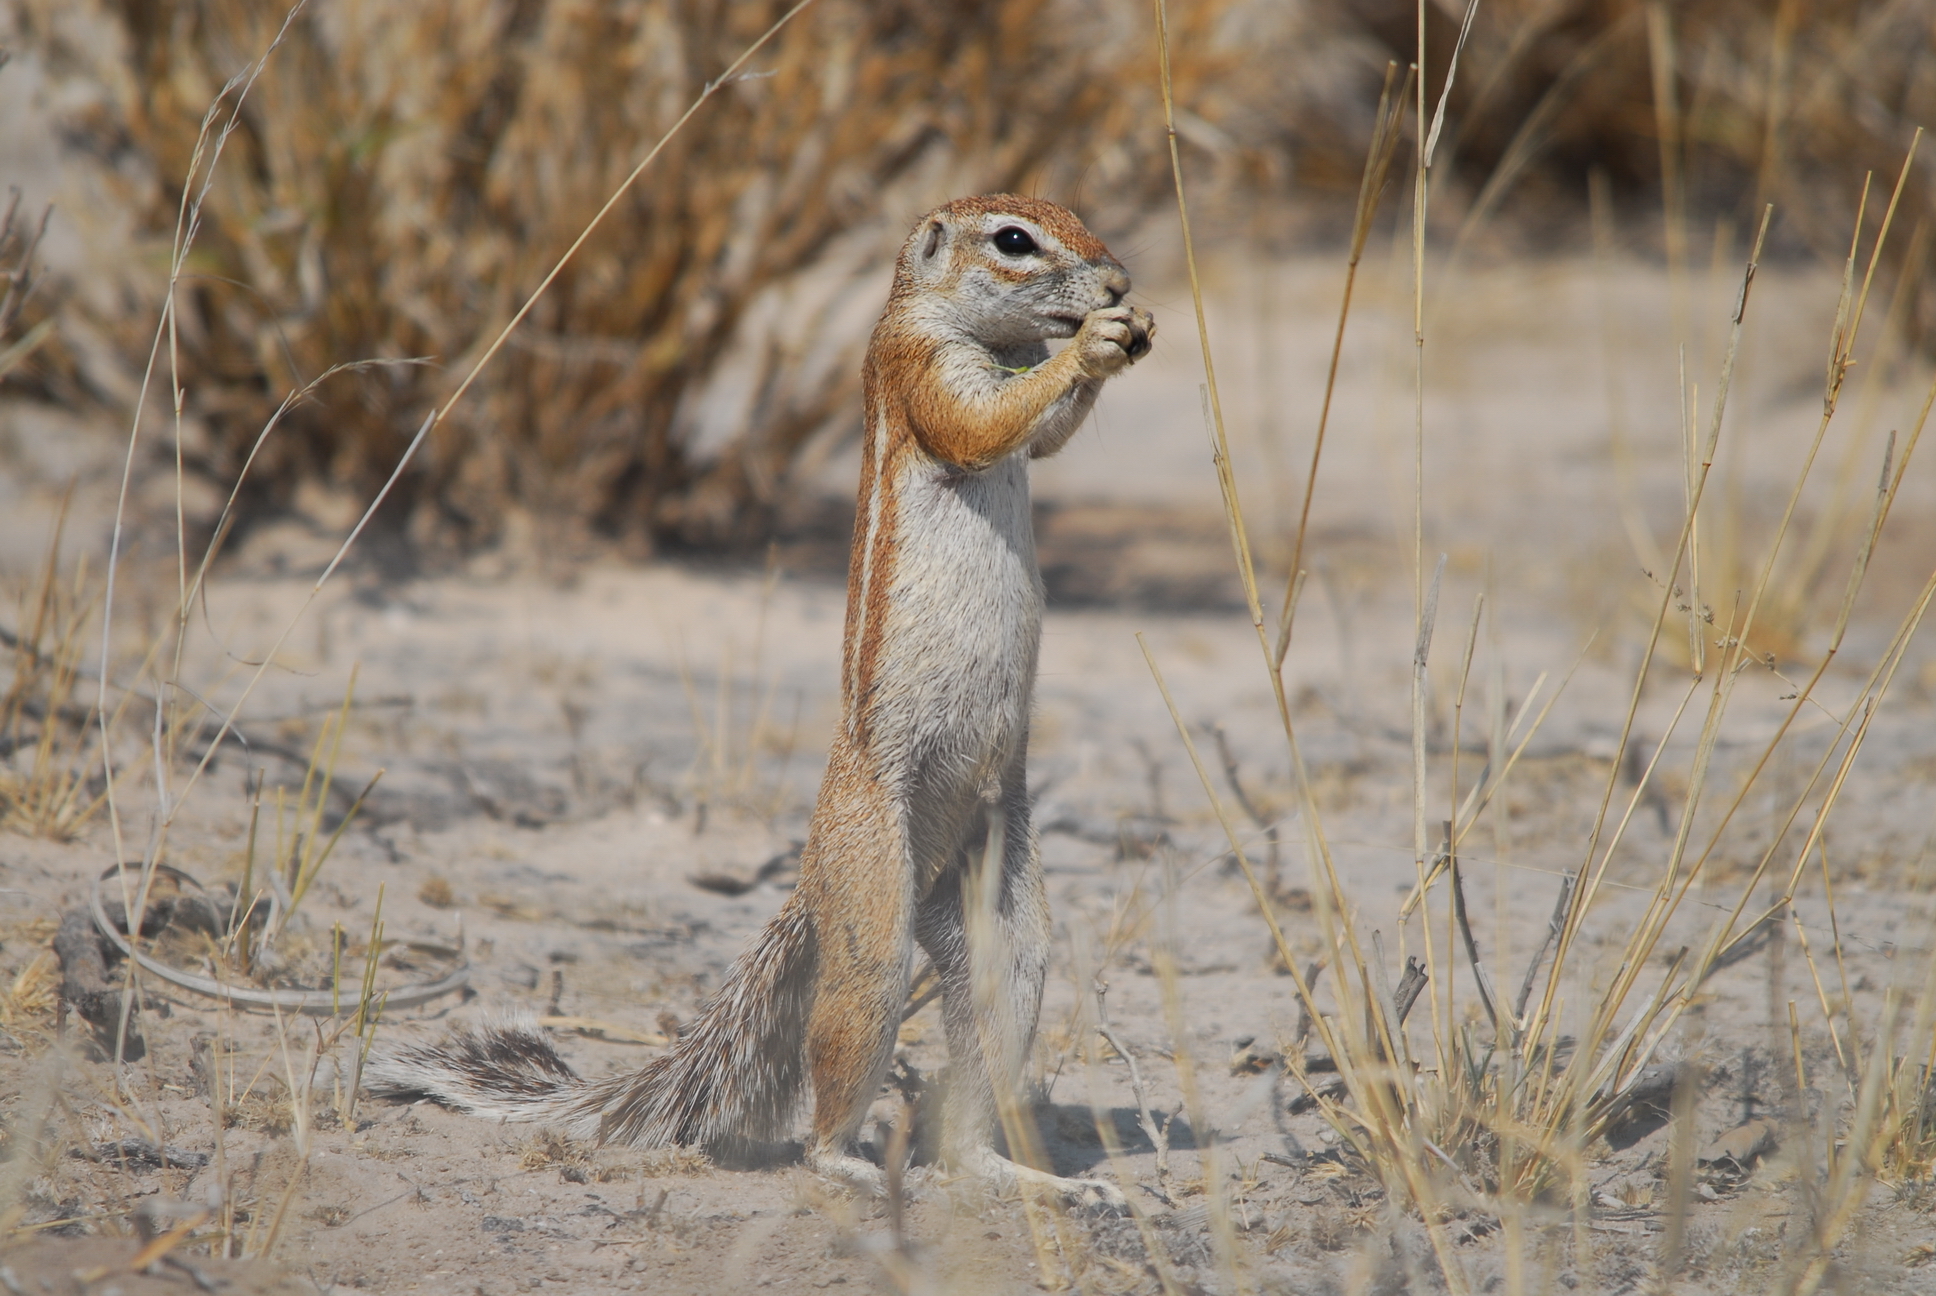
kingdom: Animalia
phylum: Chordata
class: Mammalia
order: Rodentia
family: Sciuridae
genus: Xerus
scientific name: Xerus inauris
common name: South african ground squirrel
